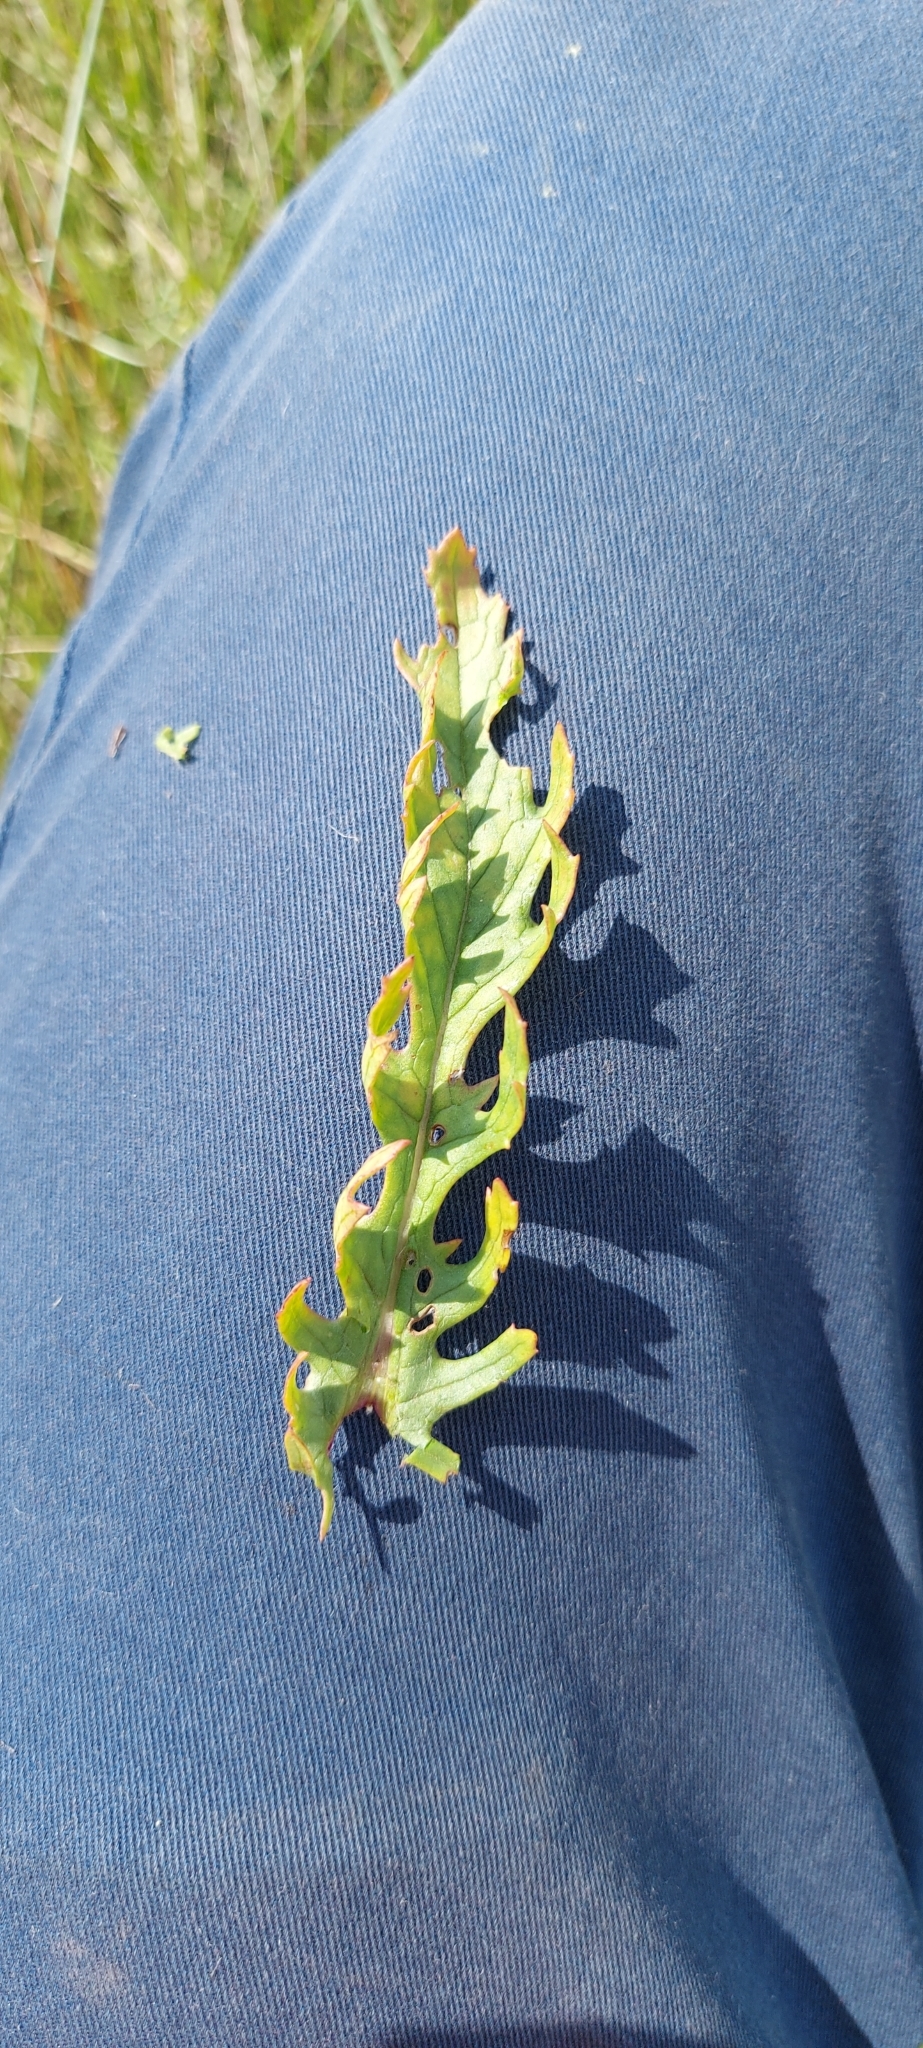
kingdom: Plantae
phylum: Tracheophyta
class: Magnoliopsida
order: Asterales
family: Asteraceae
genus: Jacobaea
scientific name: Jacobaea vulgaris
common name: Stinking willie
